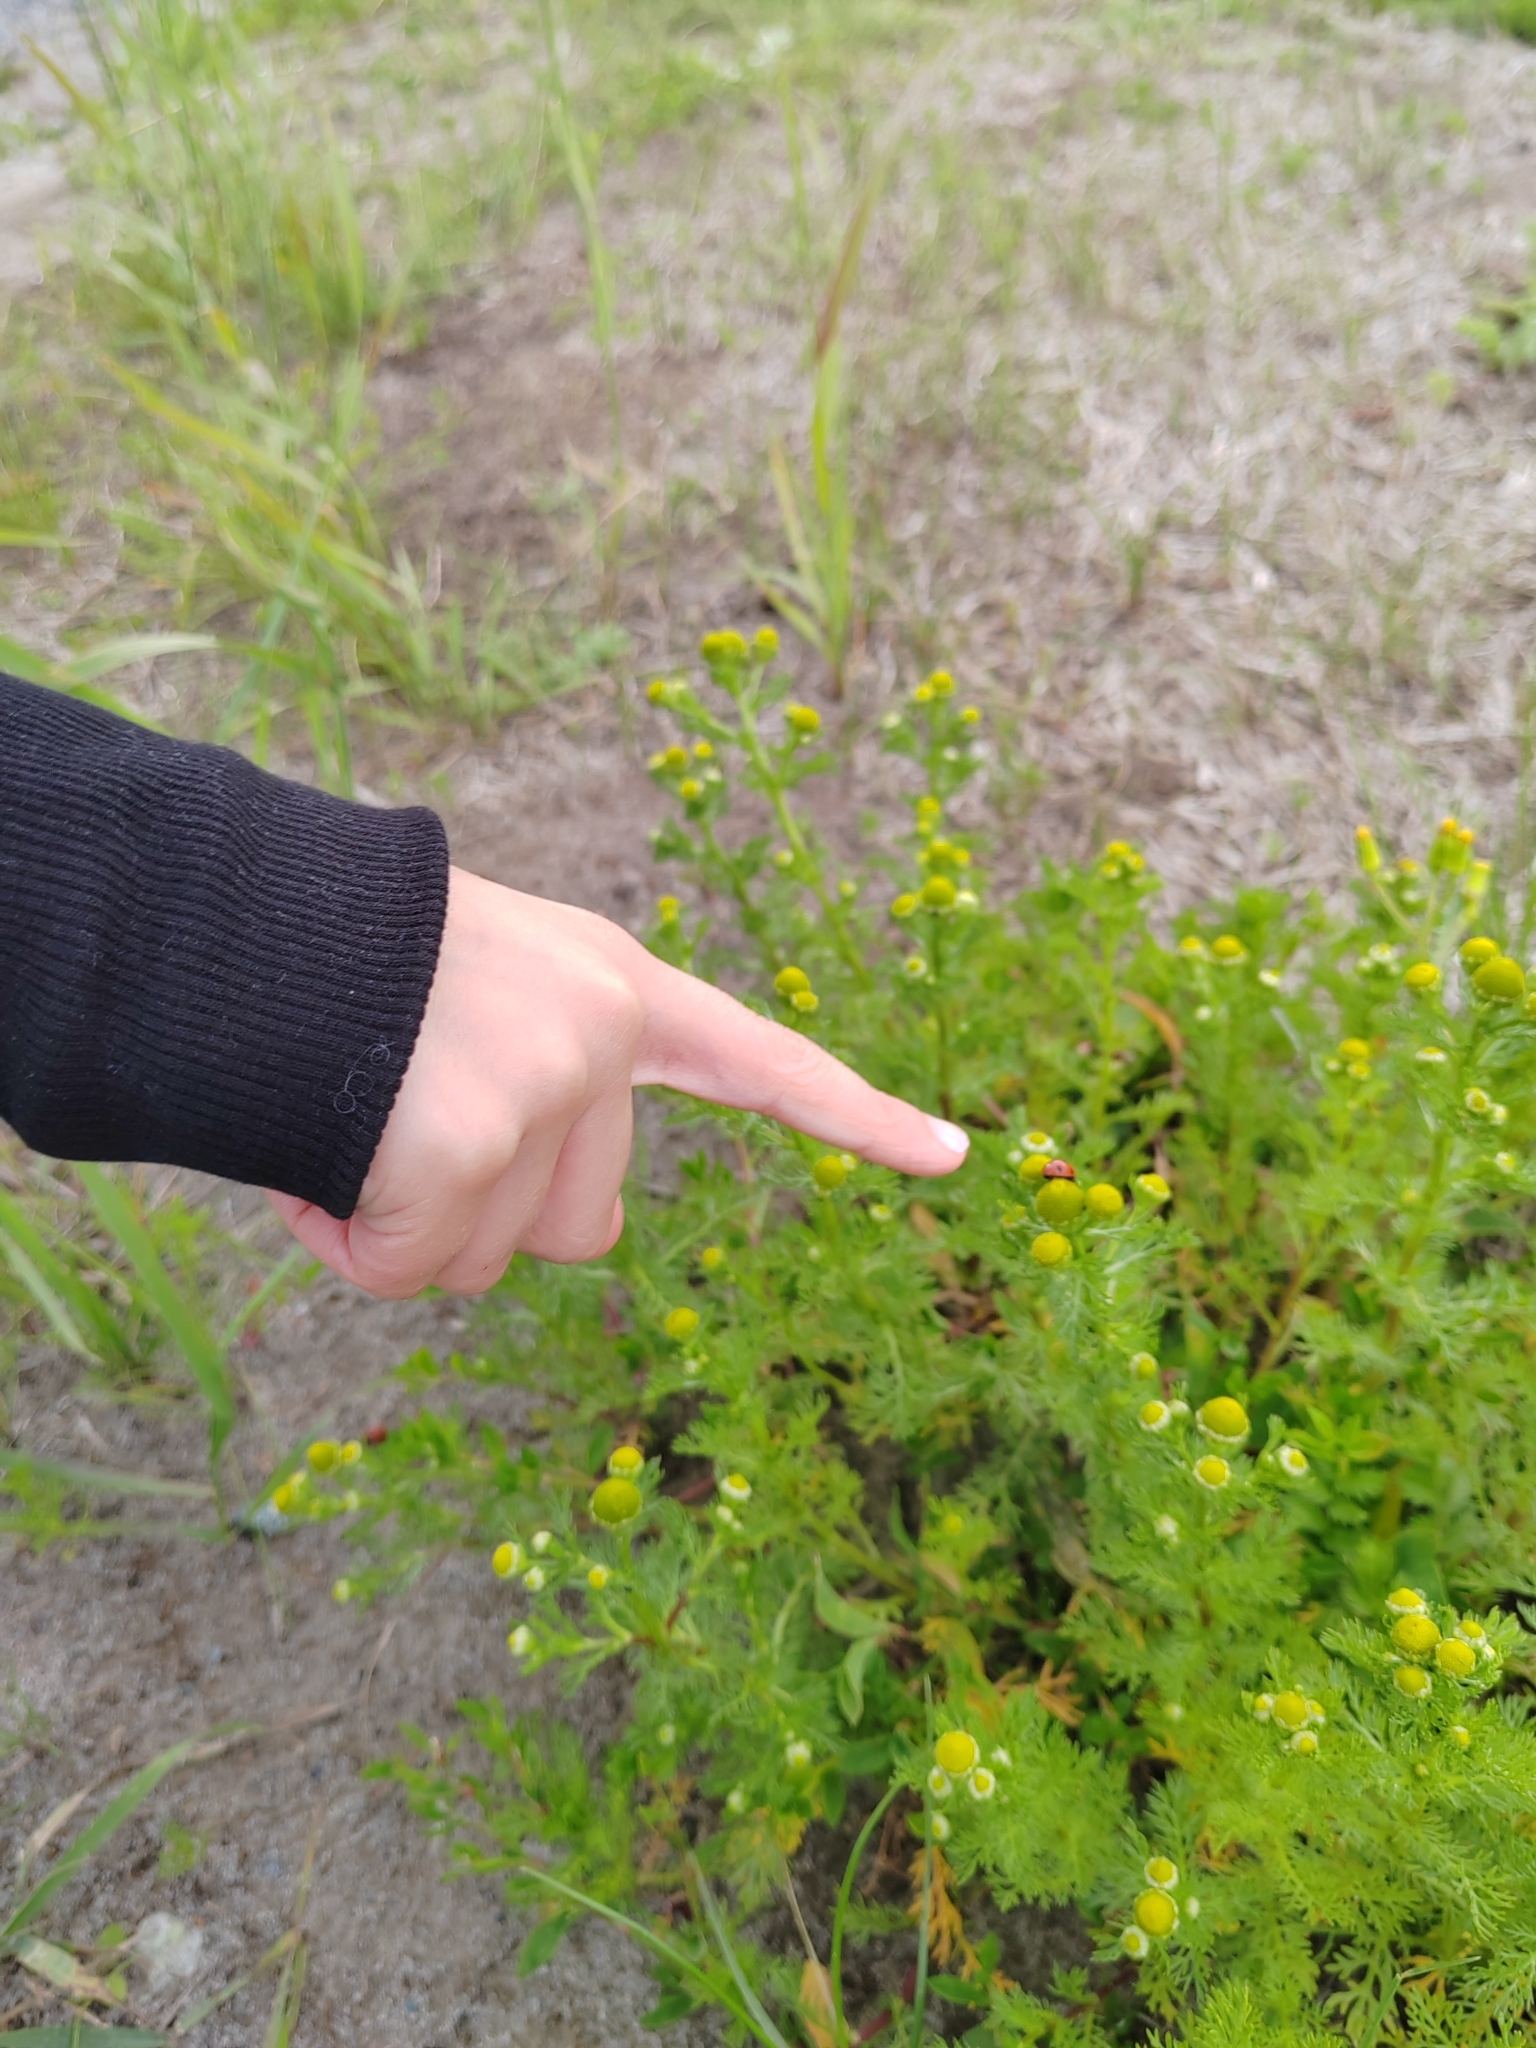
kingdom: Plantae
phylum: Tracheophyta
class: Magnoliopsida
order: Asterales
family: Asteraceae
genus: Matricaria
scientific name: Matricaria discoidea
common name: Disc mayweed
